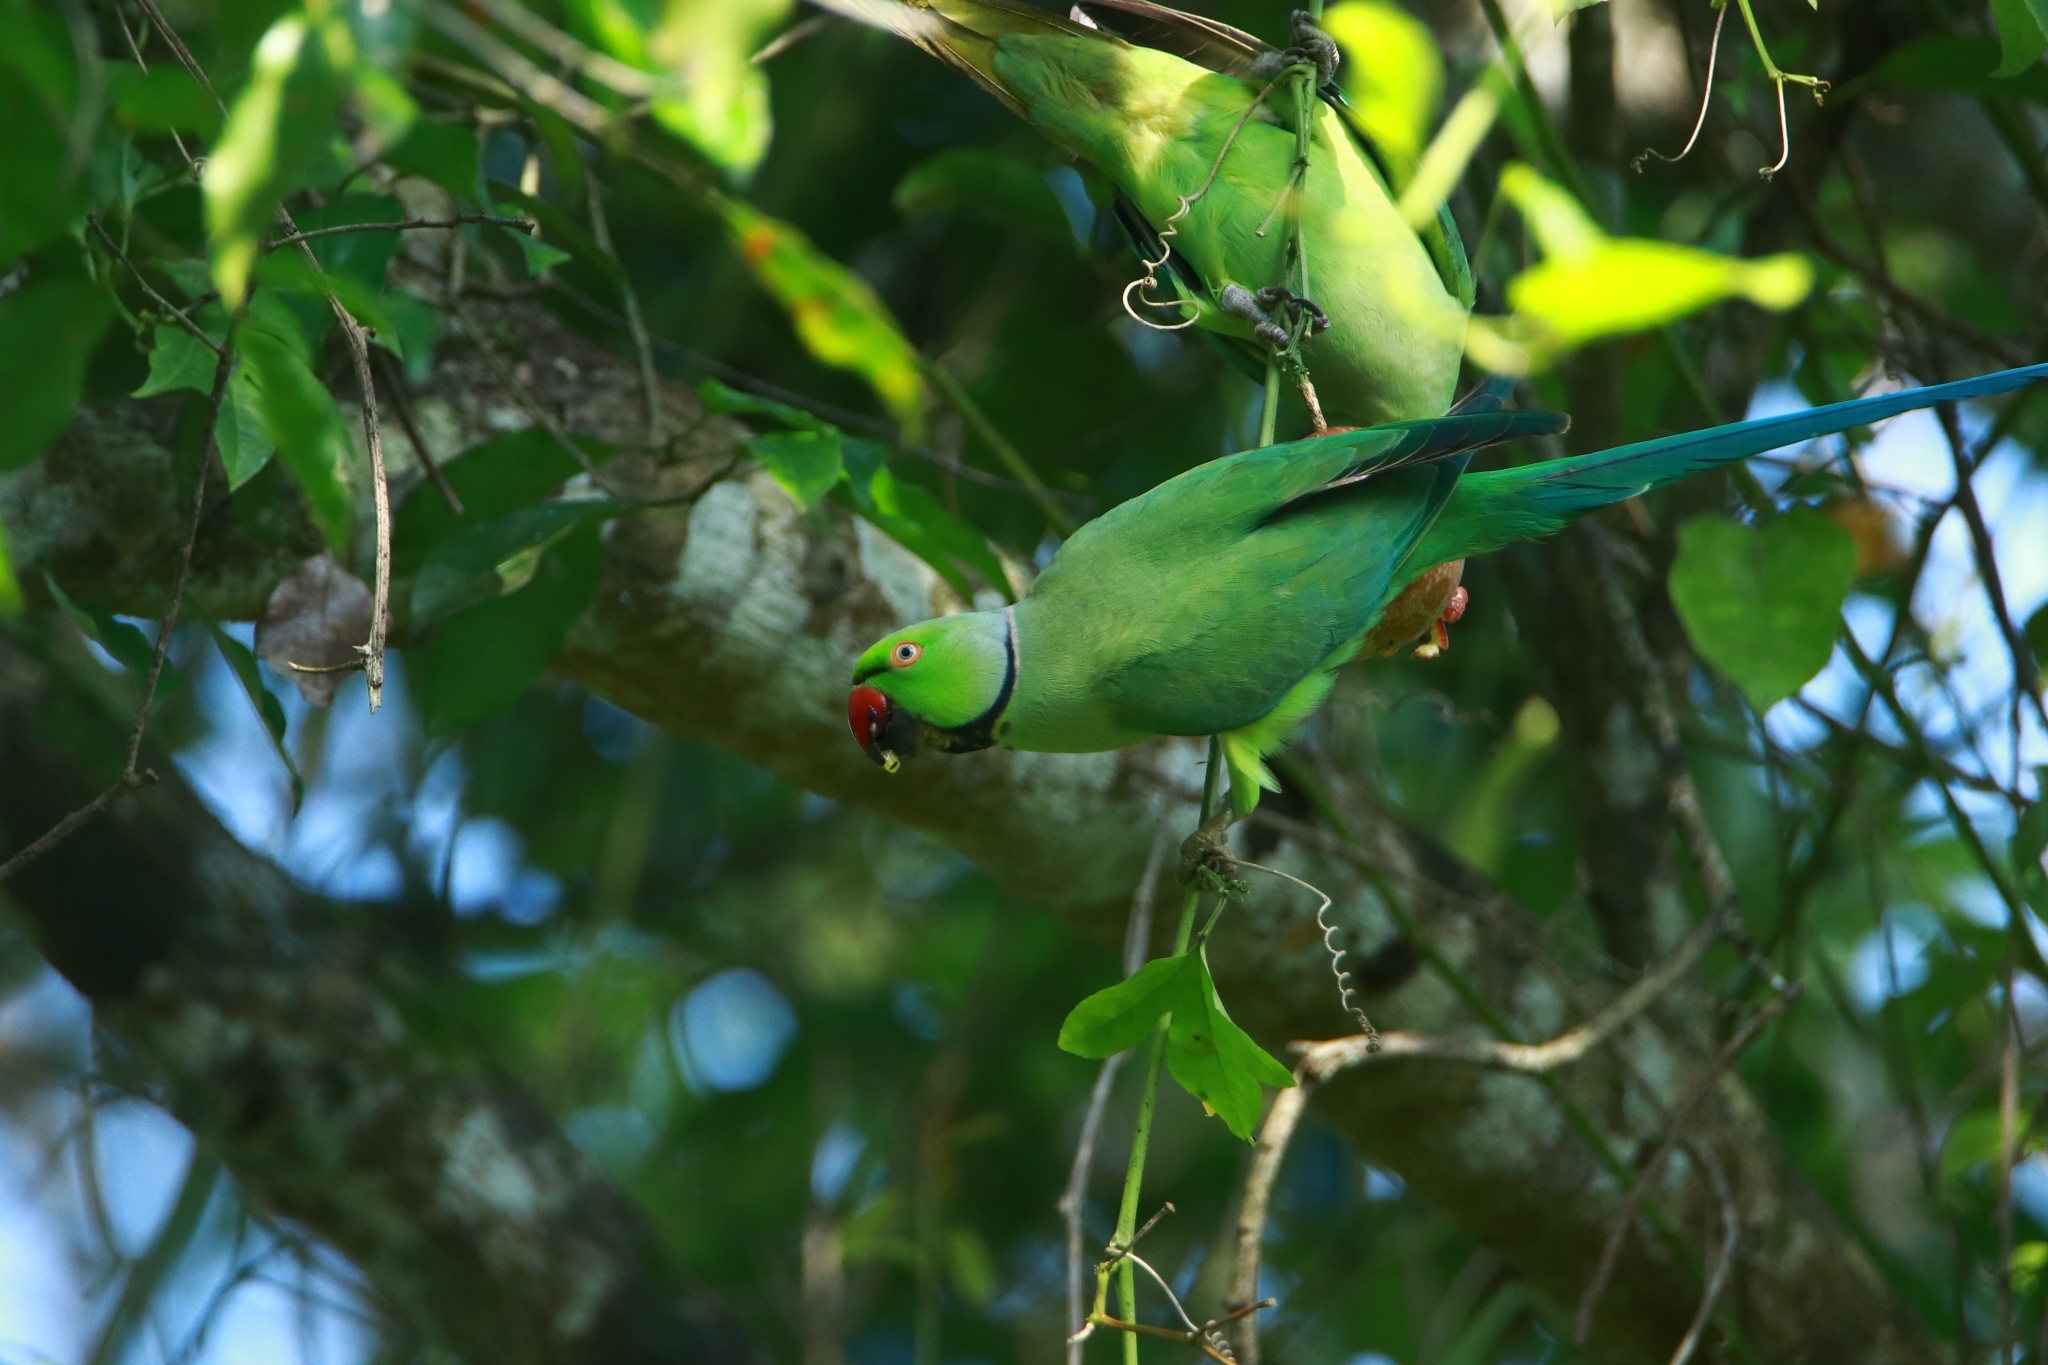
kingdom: Animalia
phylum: Chordata
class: Aves
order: Psittaciformes
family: Psittacidae
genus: Psittacula
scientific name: Psittacula krameri
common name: Rose-ringed parakeet
